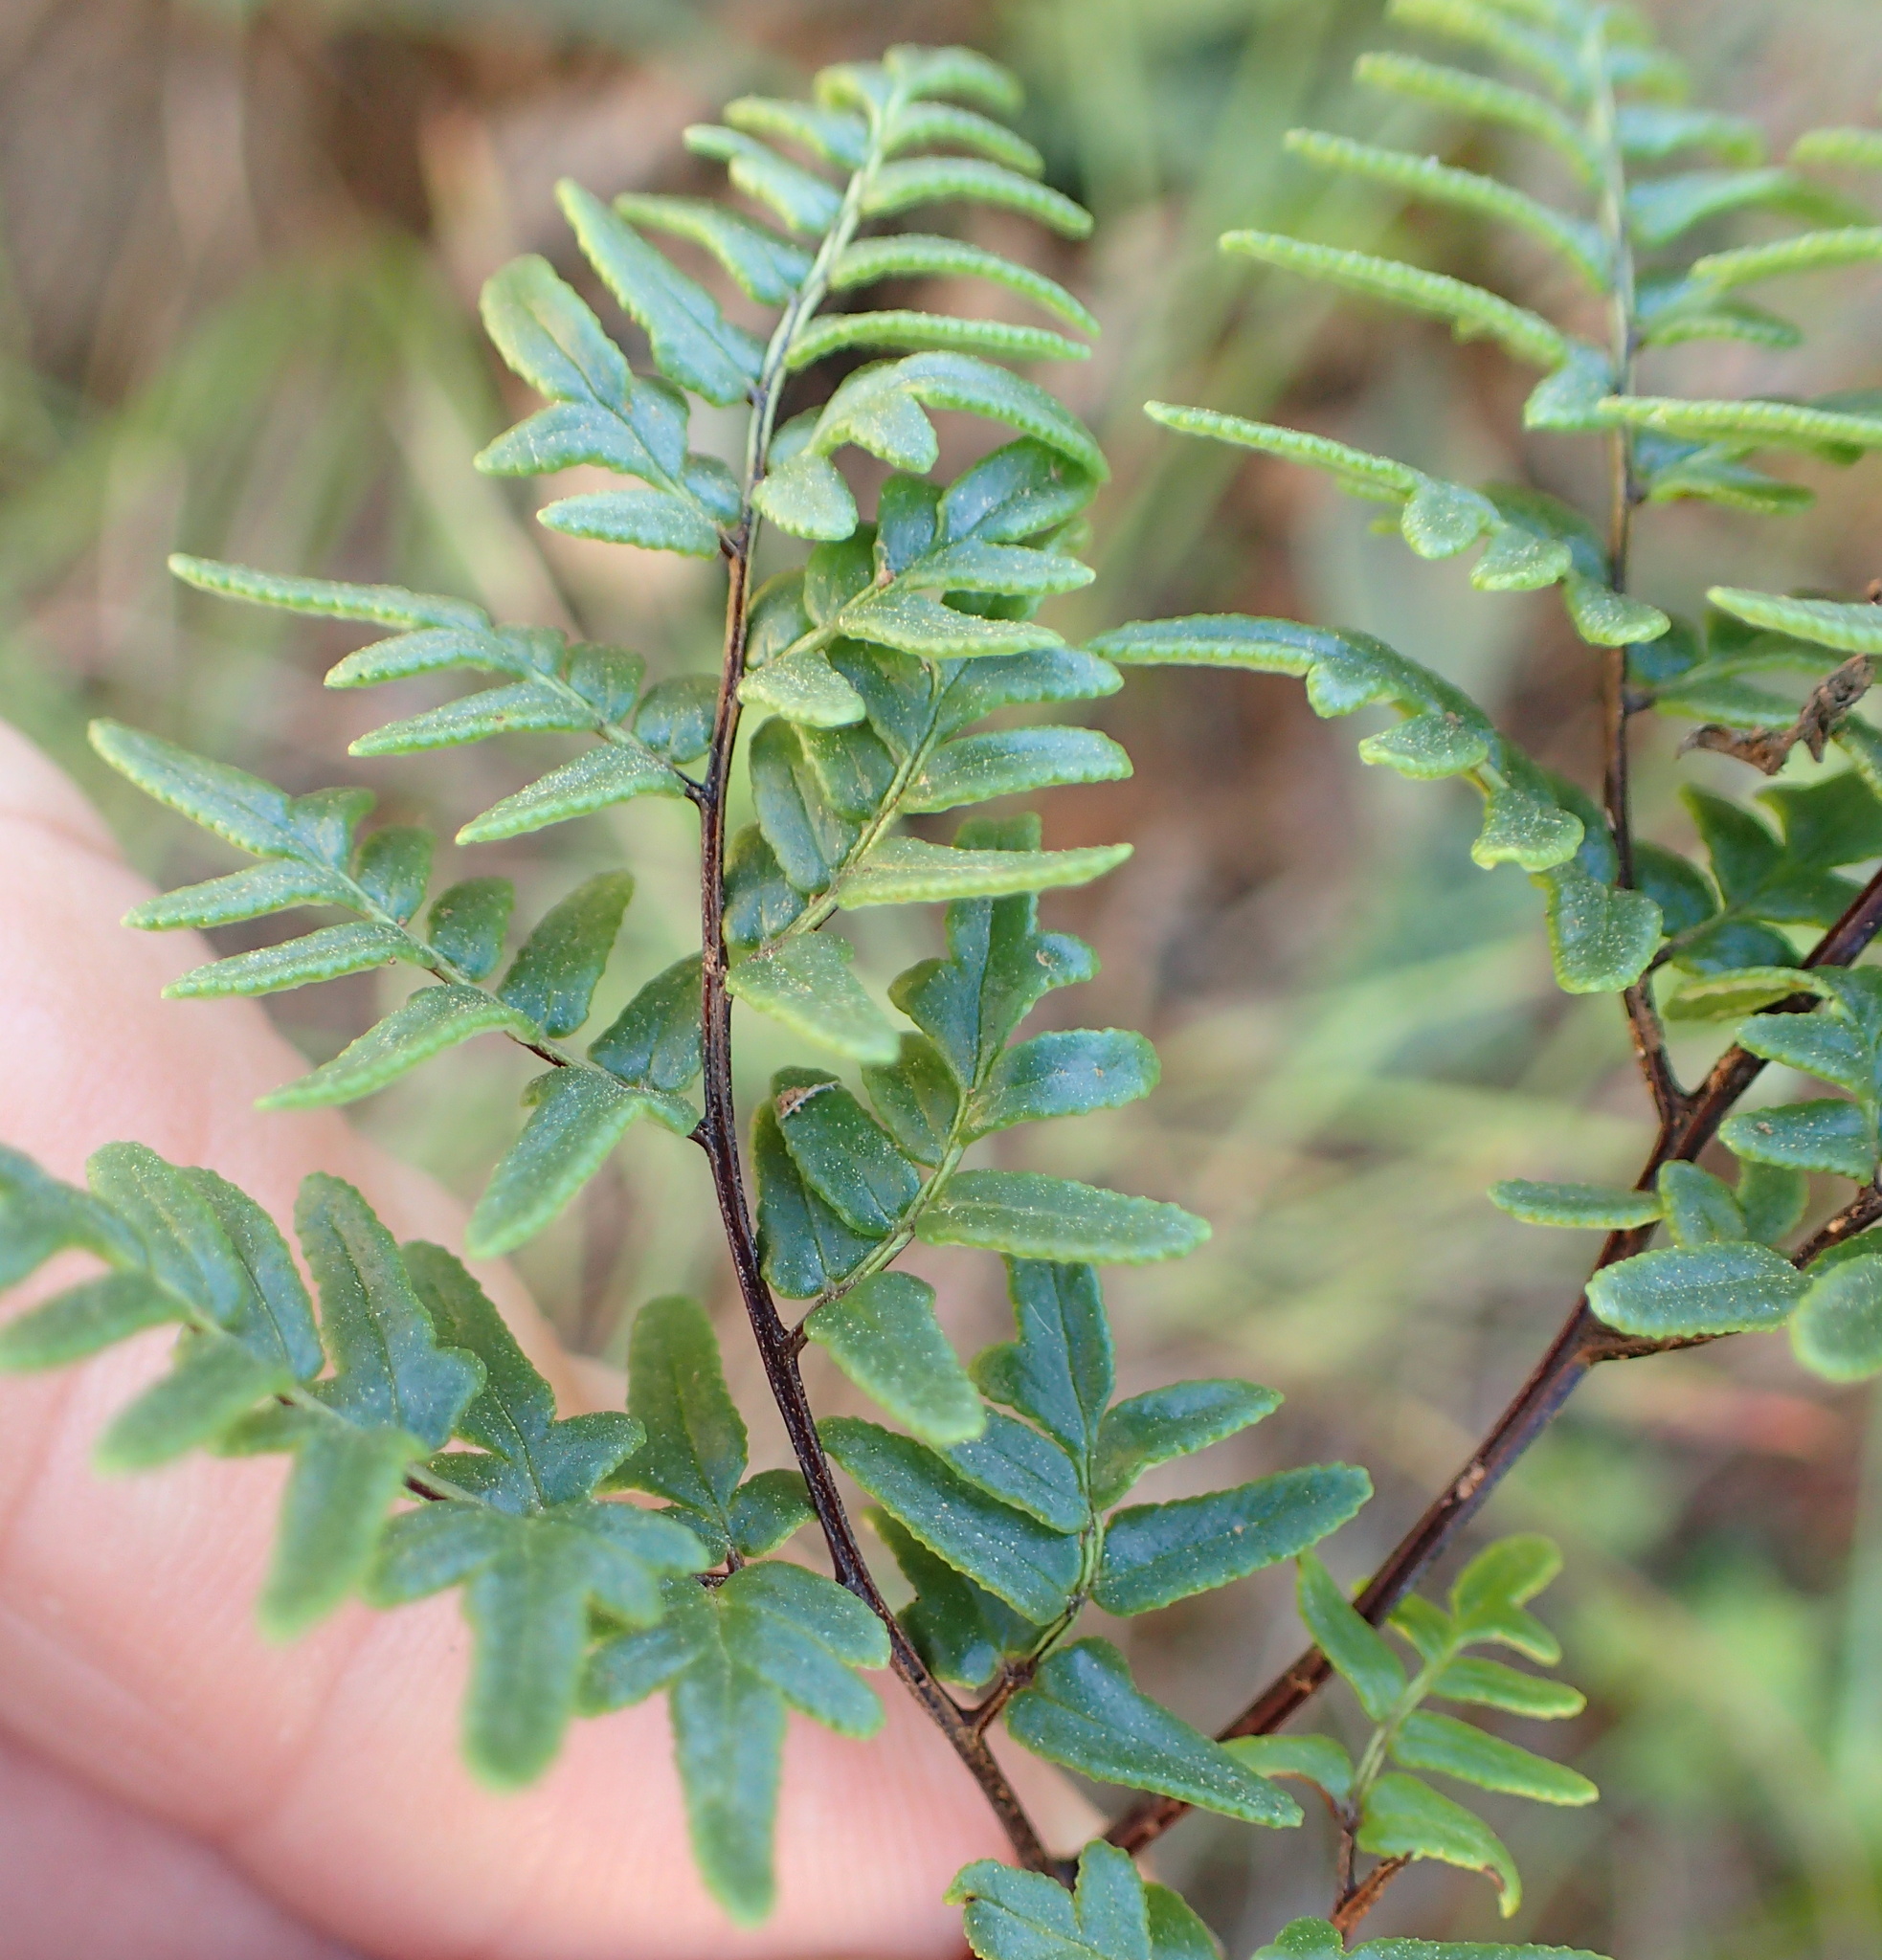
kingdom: Plantae
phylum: Tracheophyta
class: Polypodiopsida
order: Polypodiales
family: Pteridaceae
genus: Cheilanthes
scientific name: Cheilanthes quadripinnata
